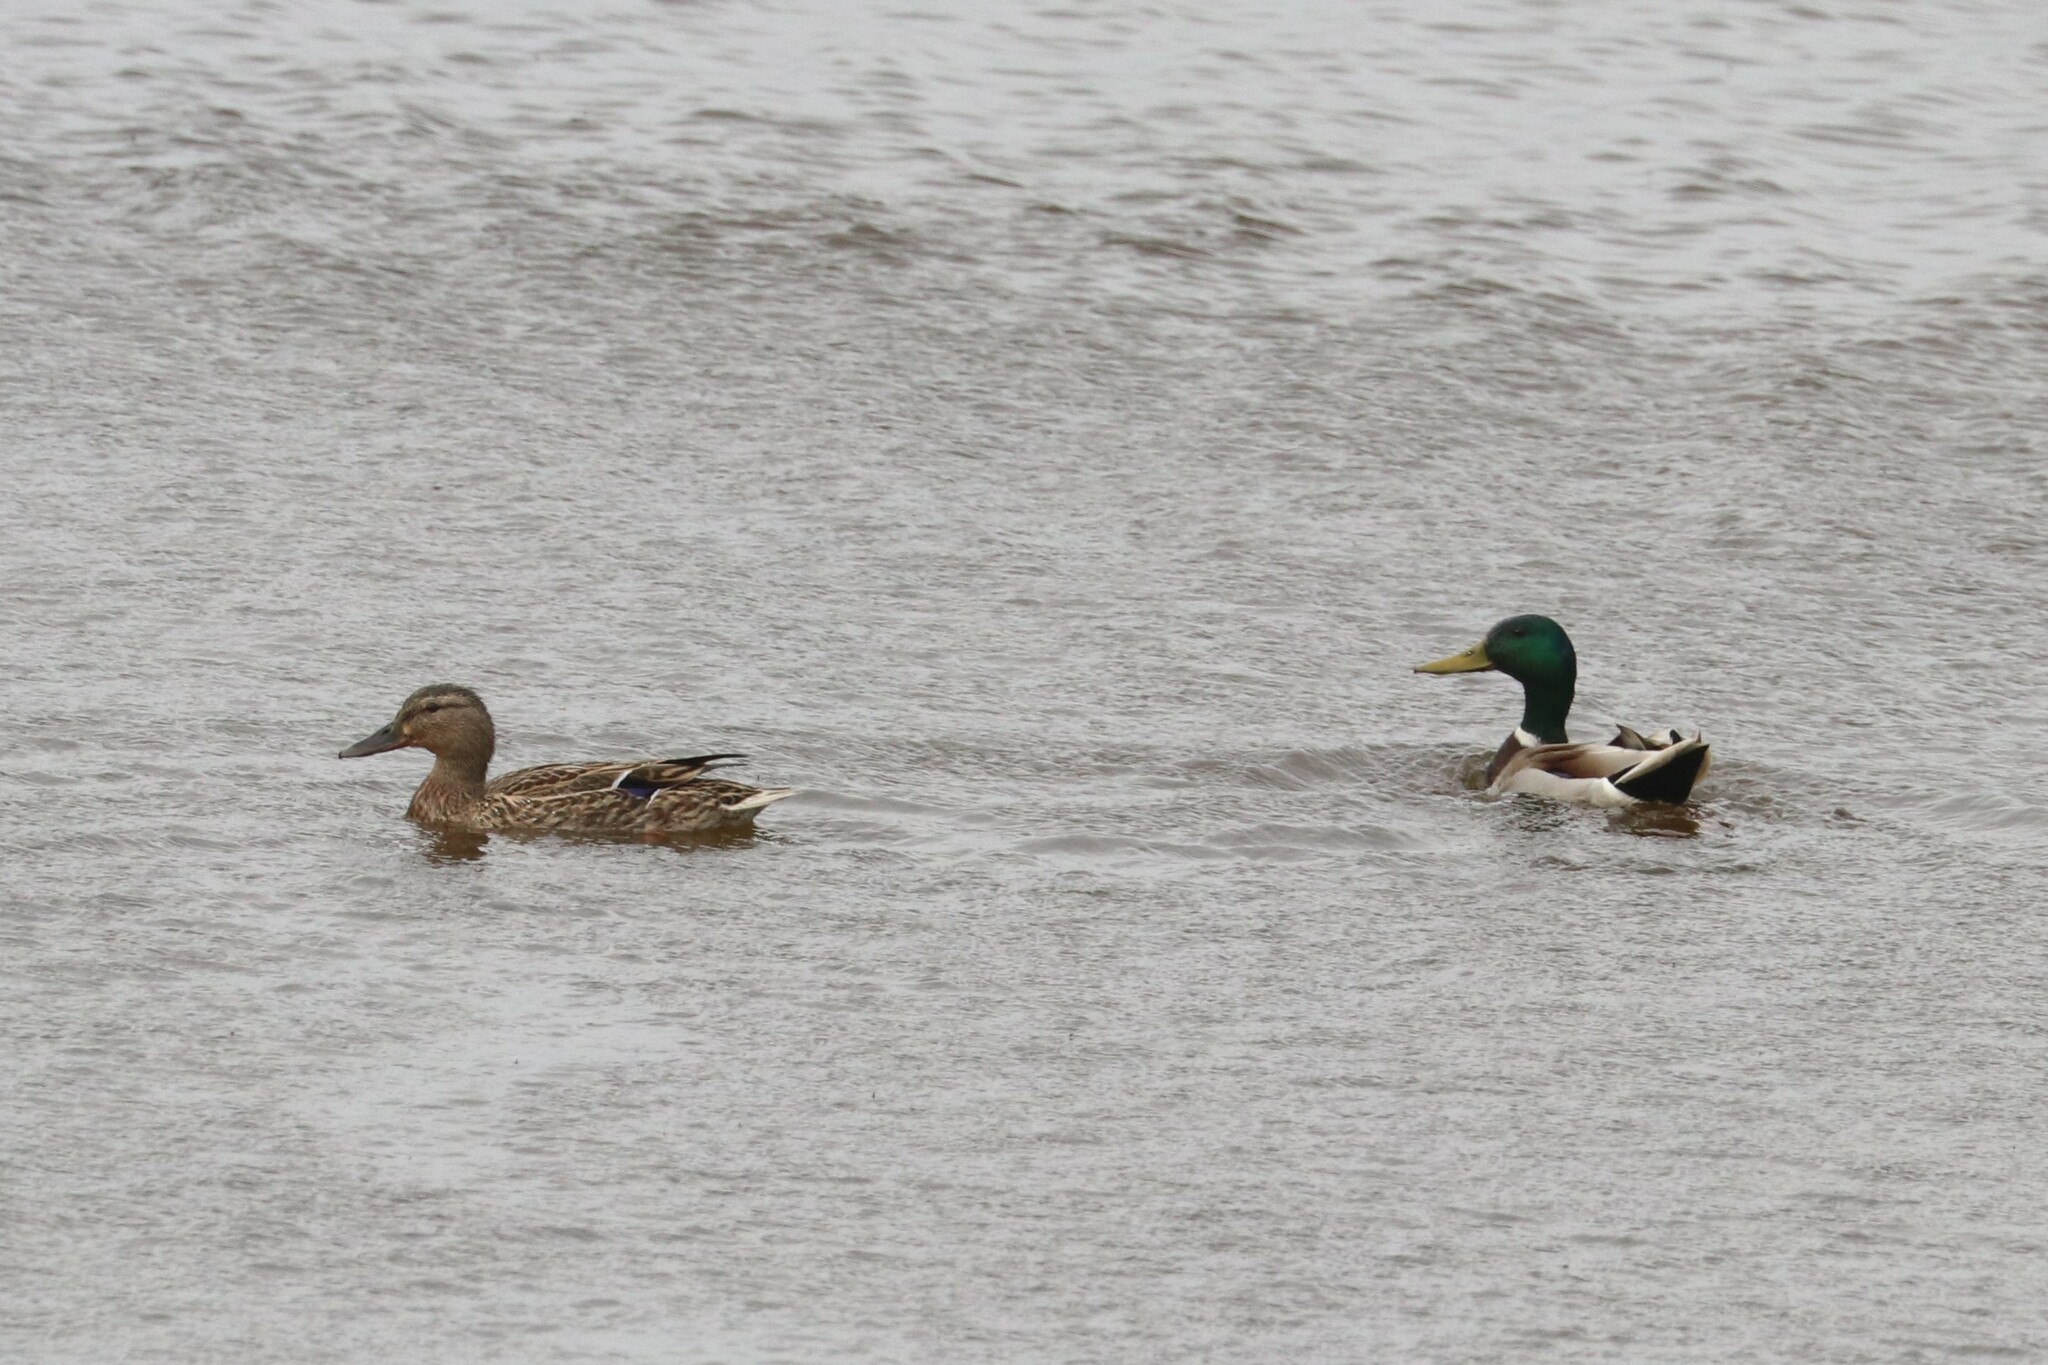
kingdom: Animalia
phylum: Chordata
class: Aves
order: Anseriformes
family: Anatidae
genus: Anas
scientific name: Anas platyrhynchos
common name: Mallard
